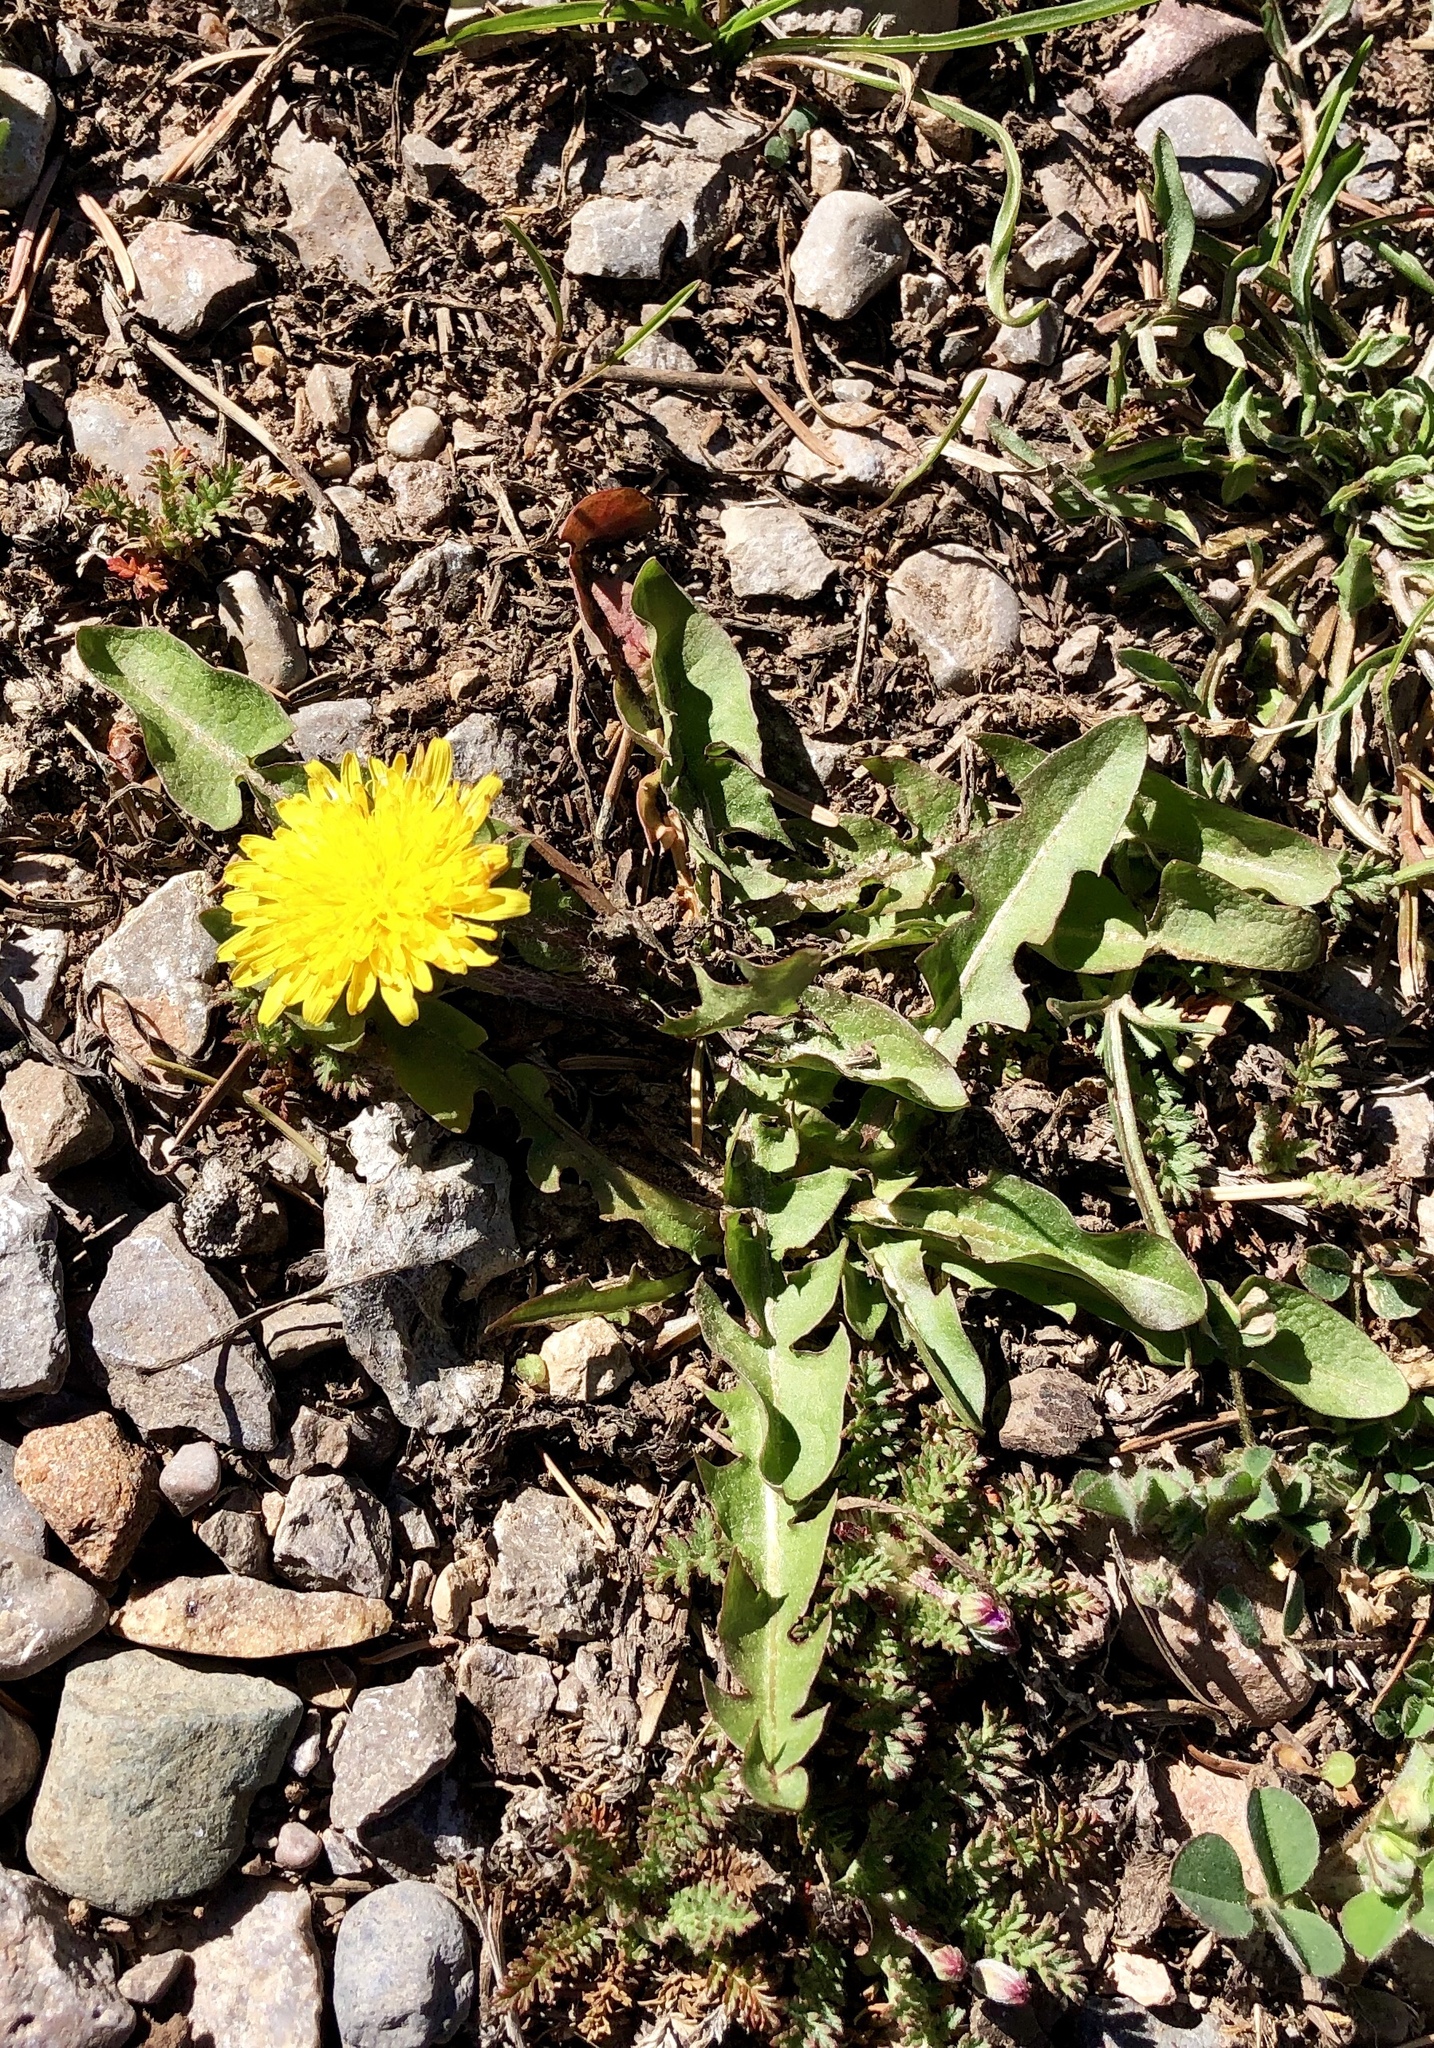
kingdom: Plantae
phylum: Tracheophyta
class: Magnoliopsida
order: Asterales
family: Asteraceae
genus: Taraxacum
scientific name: Taraxacum officinale
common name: Common dandelion
